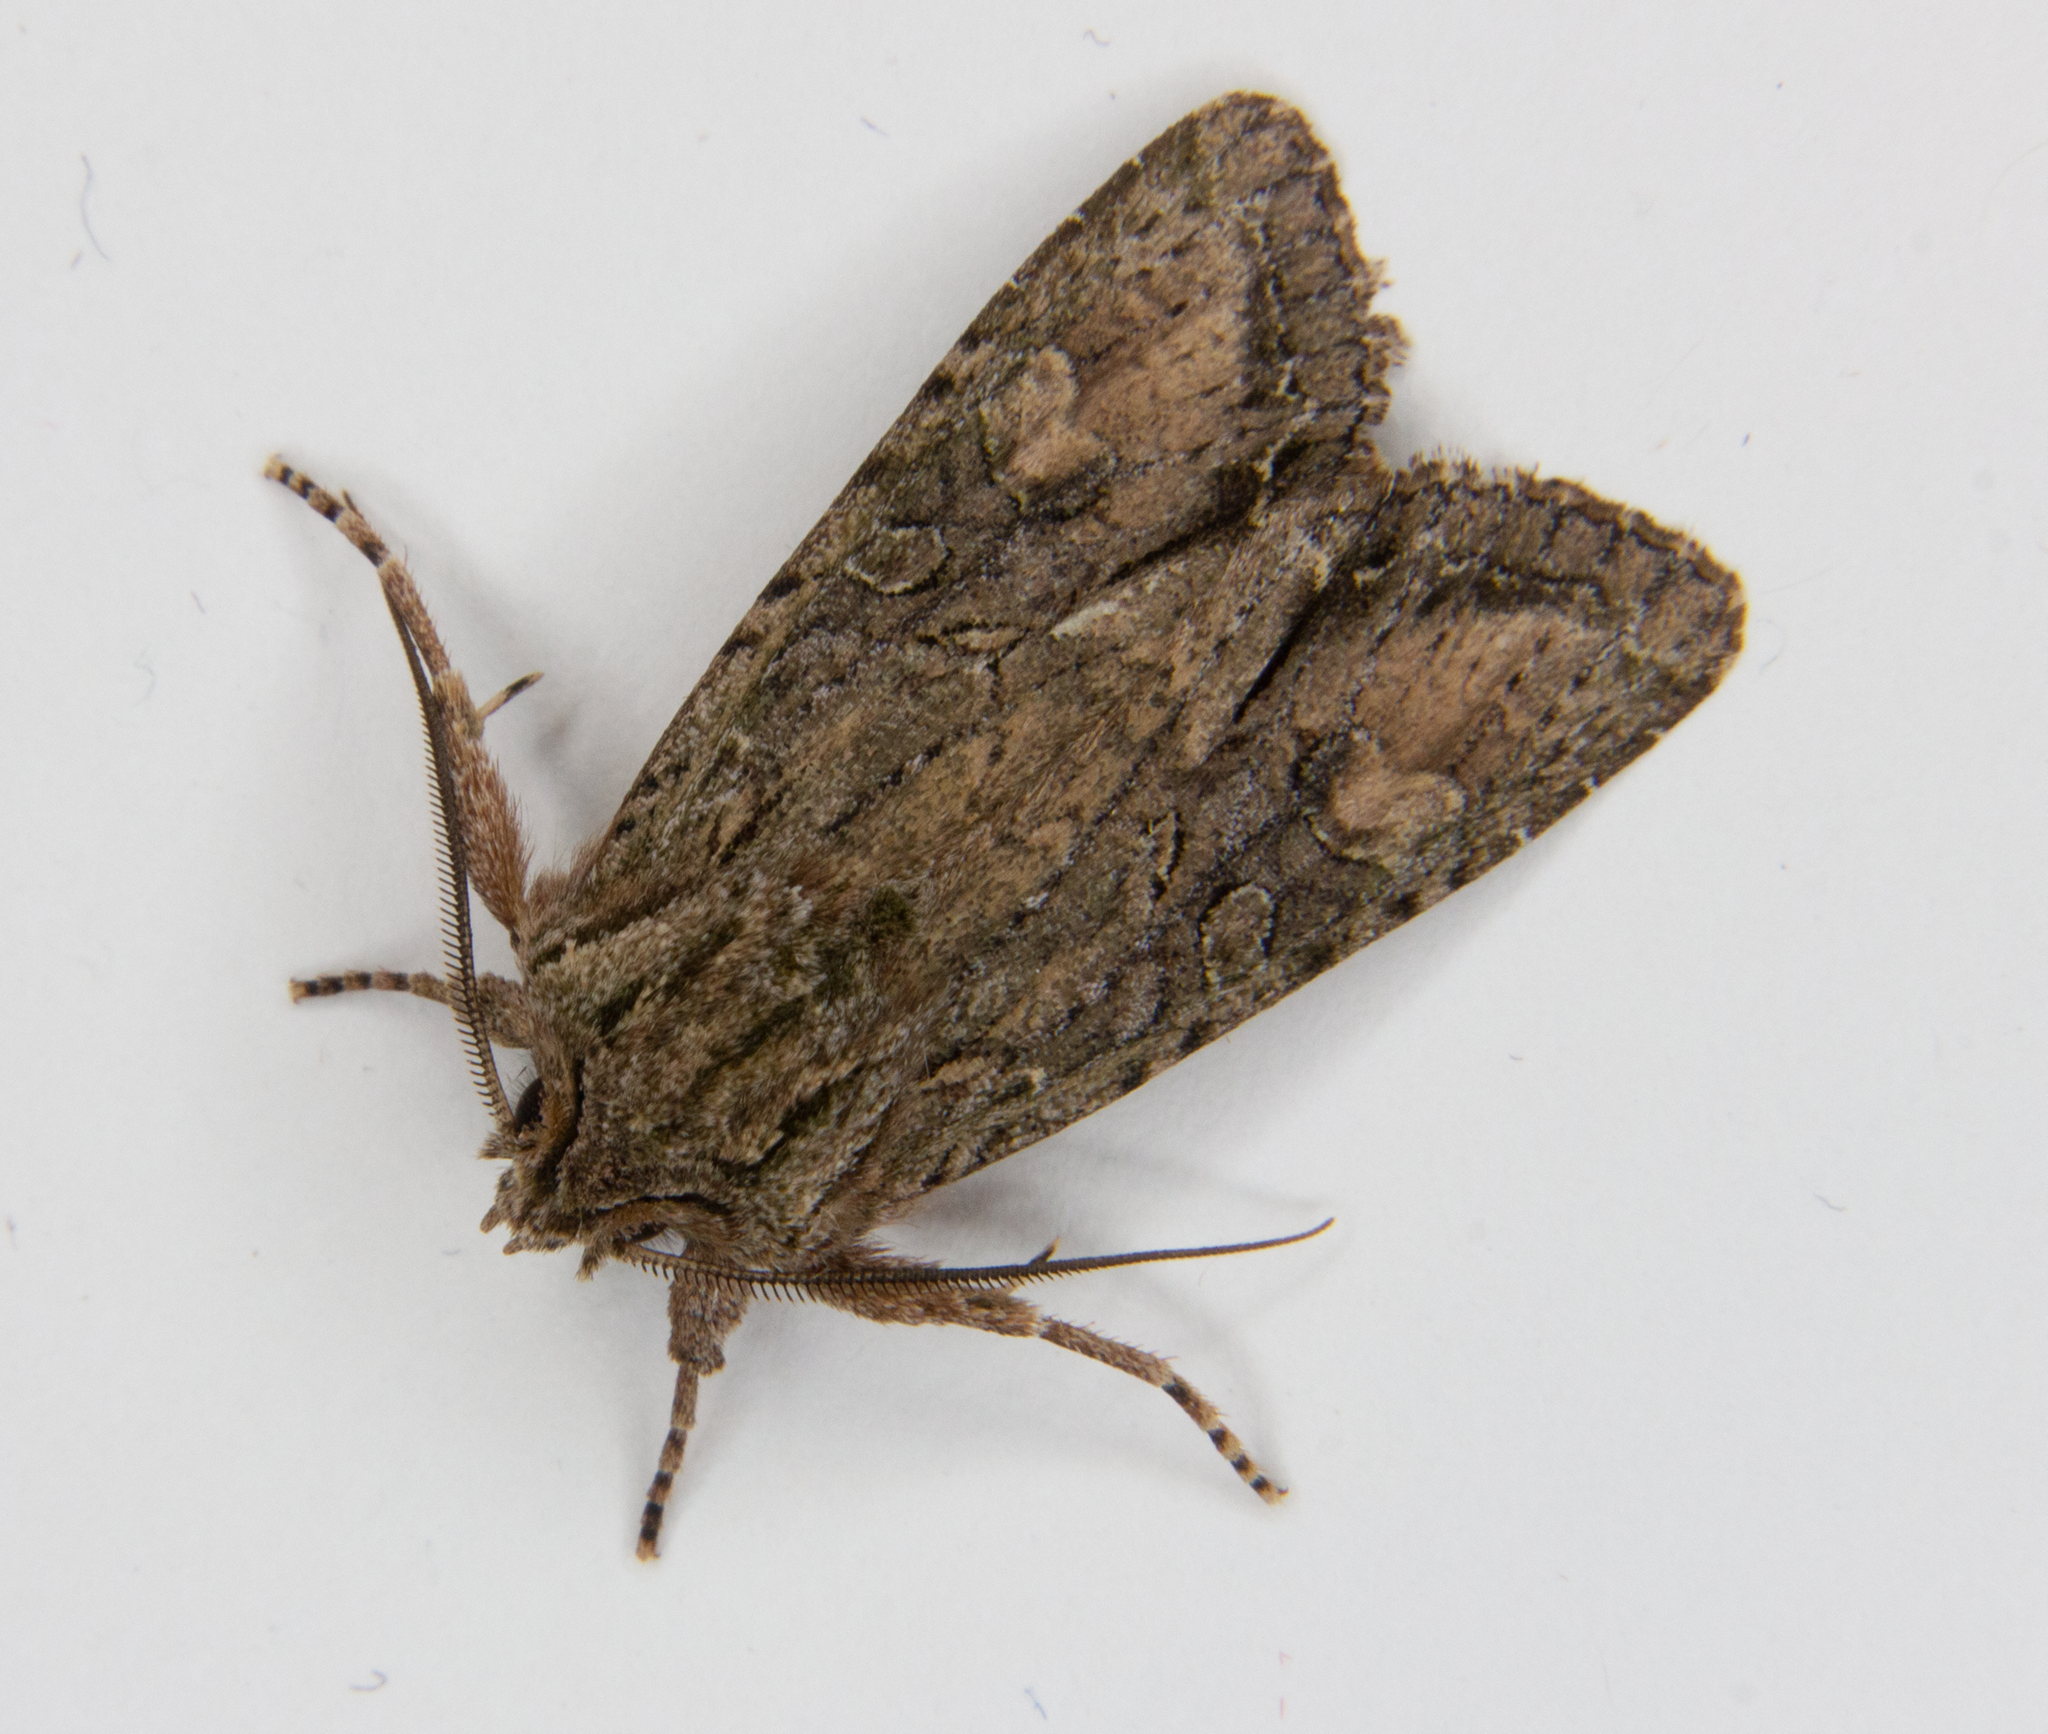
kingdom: Animalia
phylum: Arthropoda
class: Insecta
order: Lepidoptera
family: Noctuidae
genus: Ichneutica
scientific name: Ichneutica mutans
